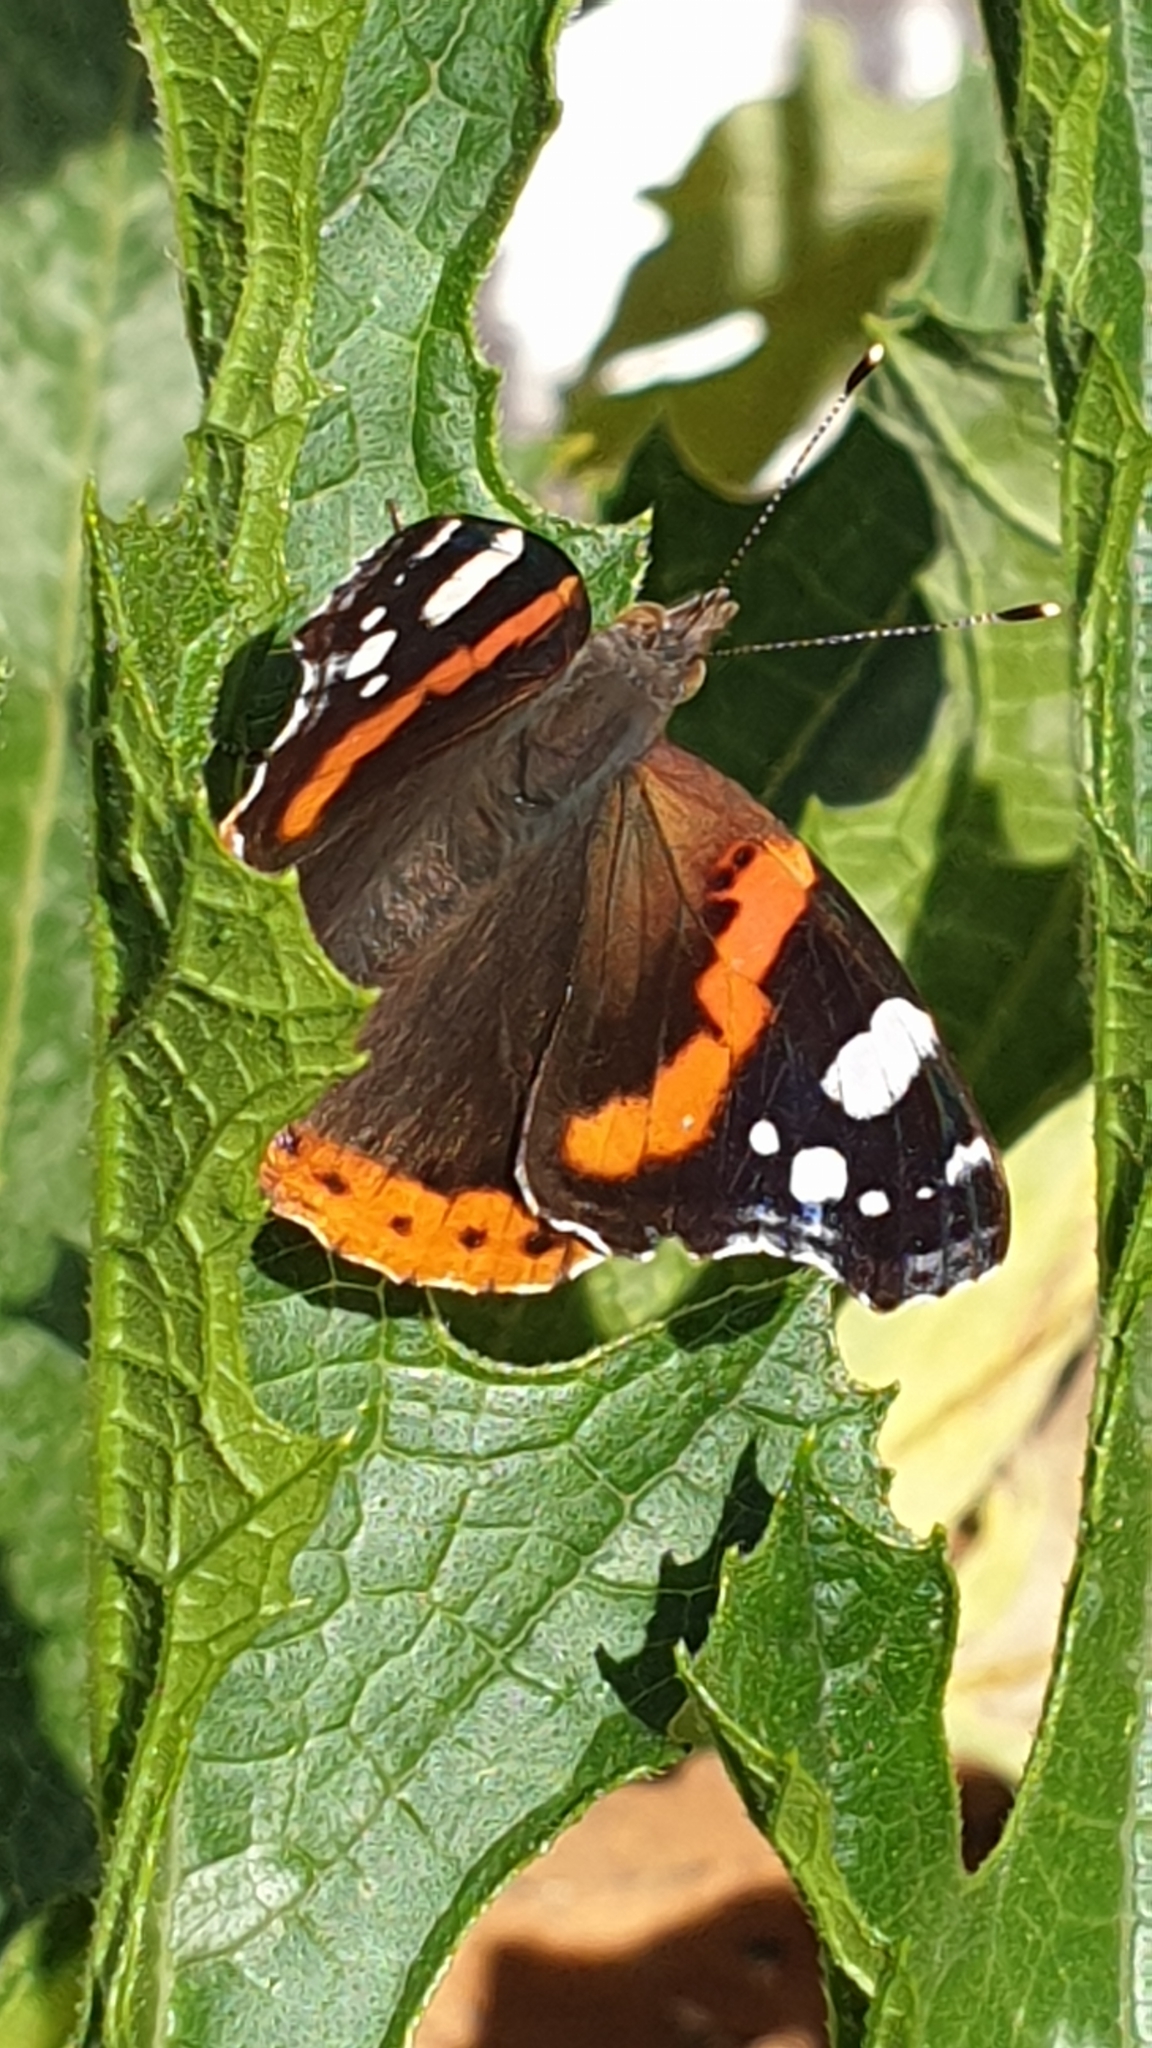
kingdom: Animalia
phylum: Arthropoda
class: Insecta
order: Lepidoptera
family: Nymphalidae
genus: Vanessa
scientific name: Vanessa atalanta
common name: Red admiral
